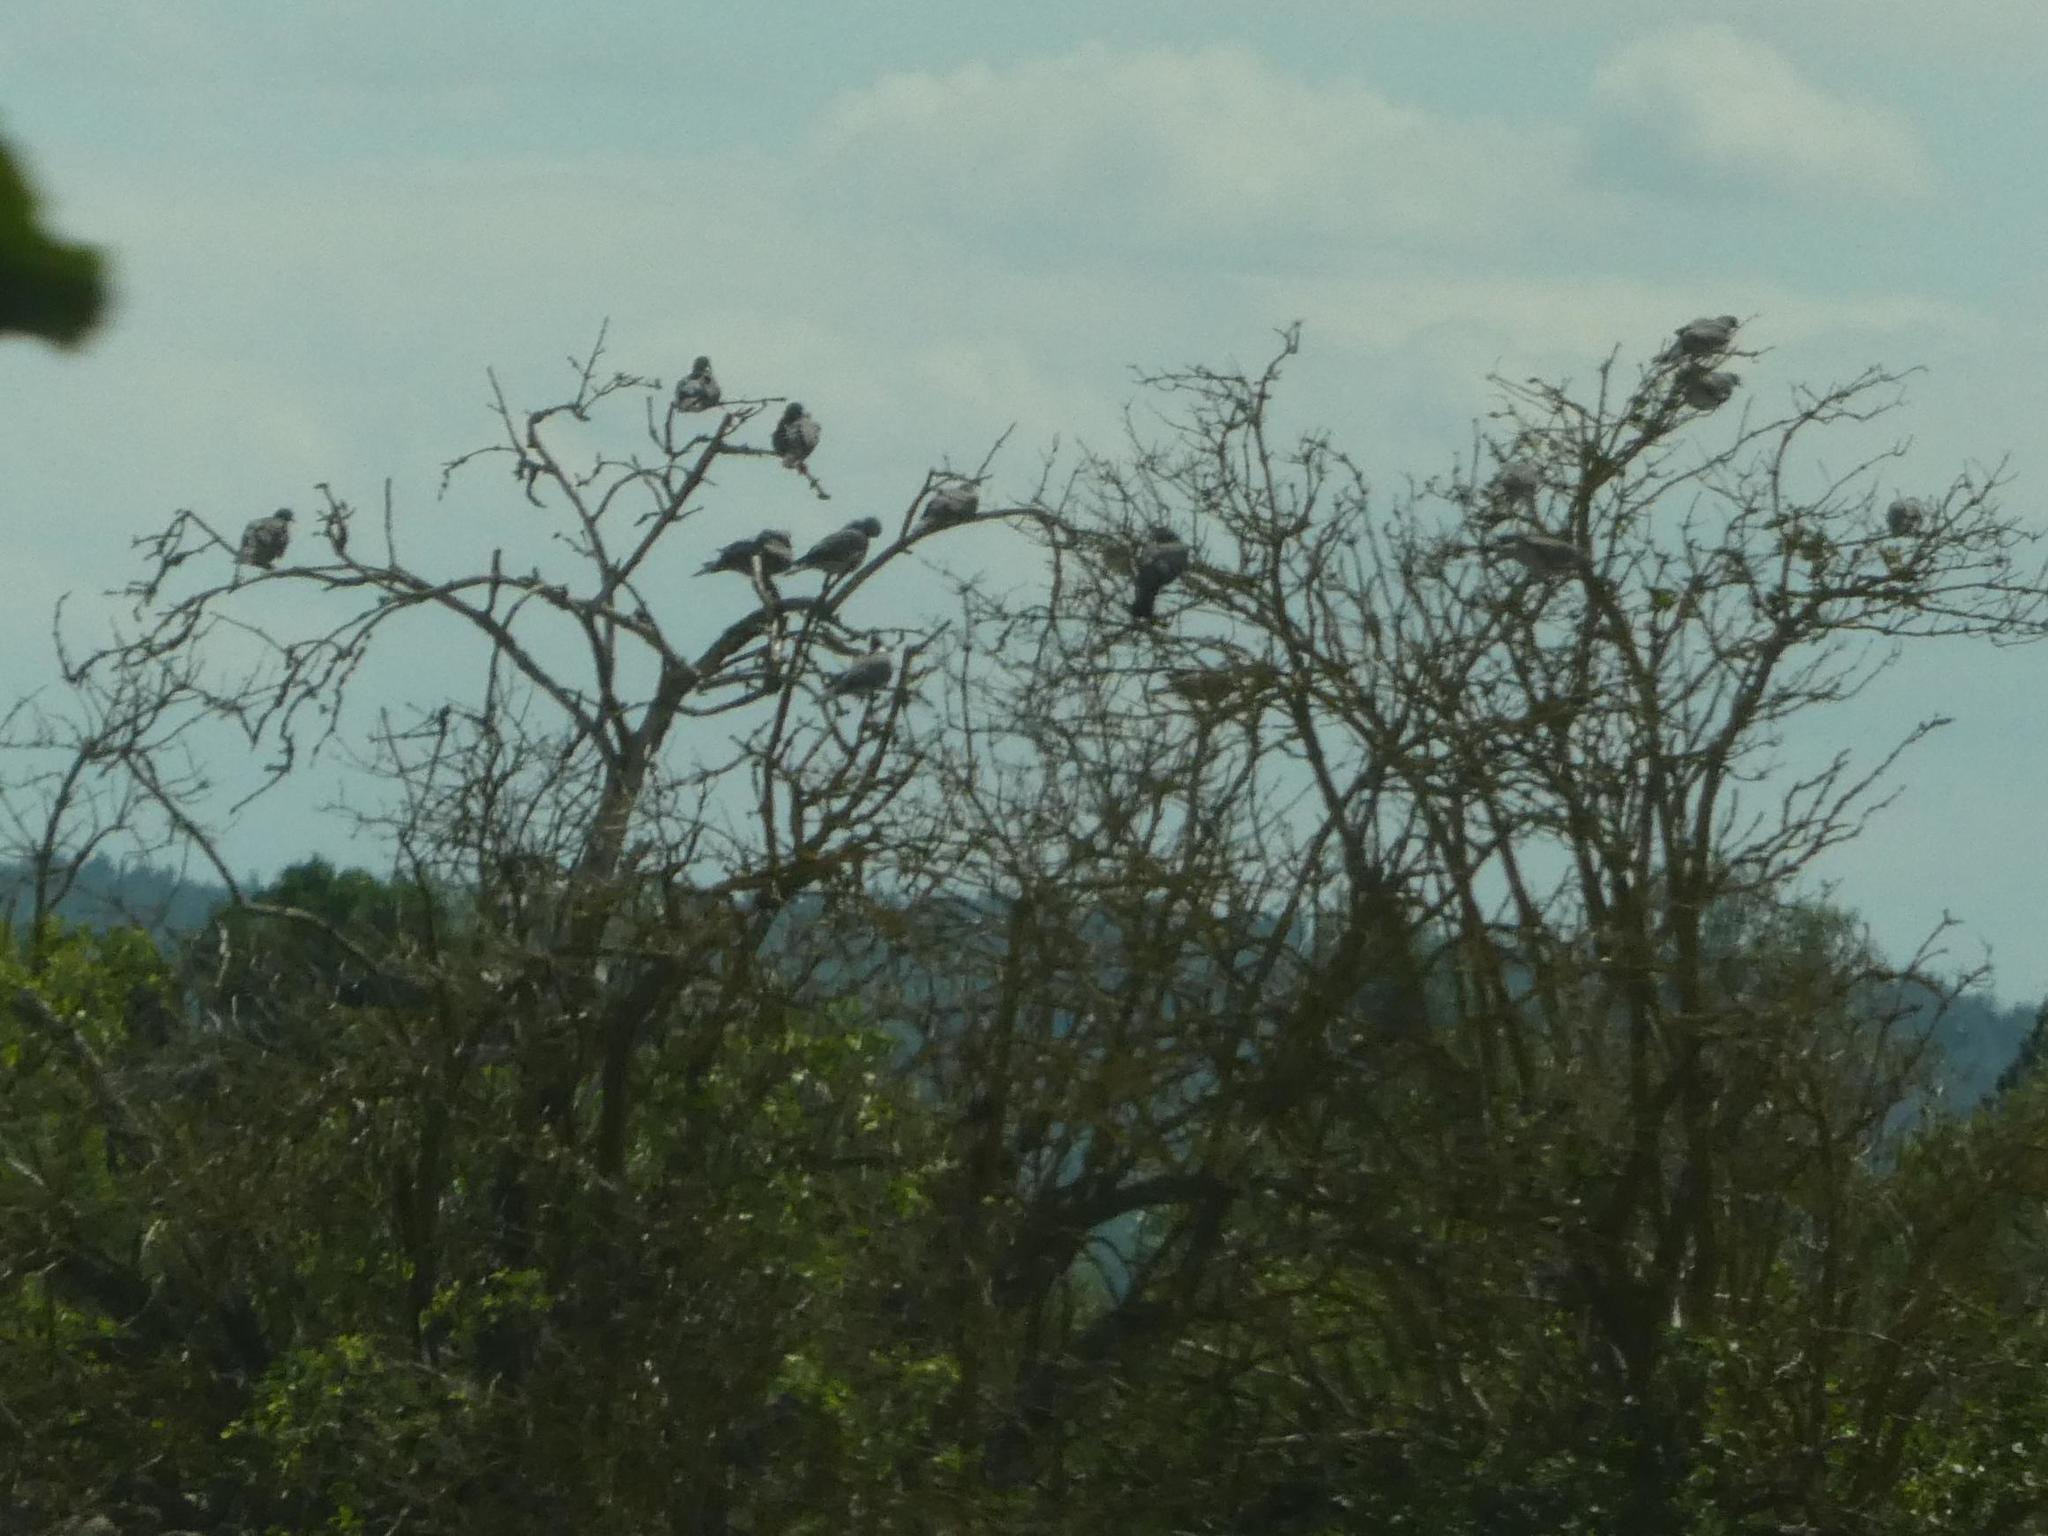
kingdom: Animalia
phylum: Chordata
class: Aves
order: Columbiformes
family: Columbidae
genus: Columba
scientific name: Columba palumbus
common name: Common wood pigeon
